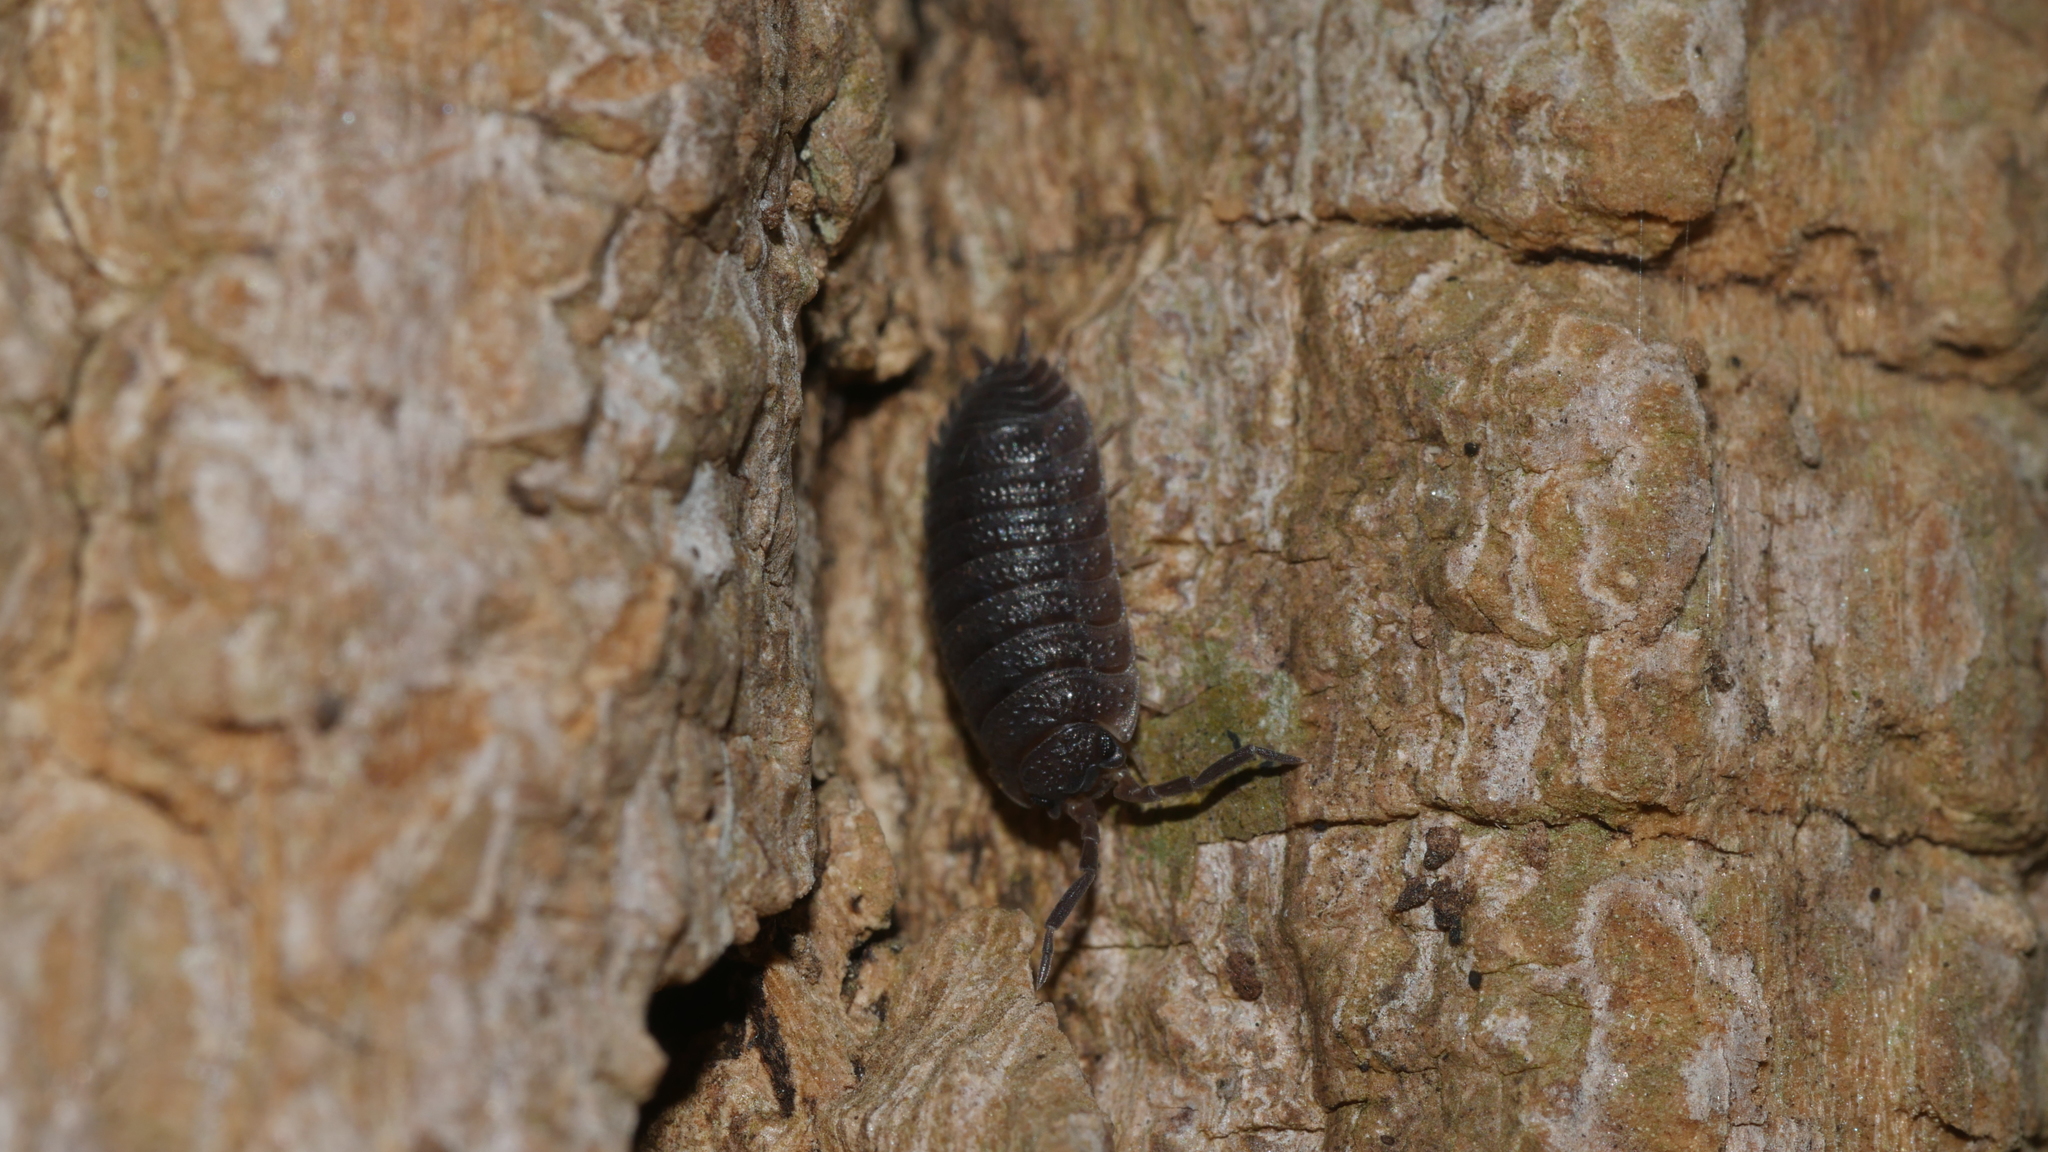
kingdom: Animalia
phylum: Arthropoda
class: Malacostraca
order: Isopoda
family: Porcellionidae
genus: Porcellio
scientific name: Porcellio scaber
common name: Common rough woodlouse
